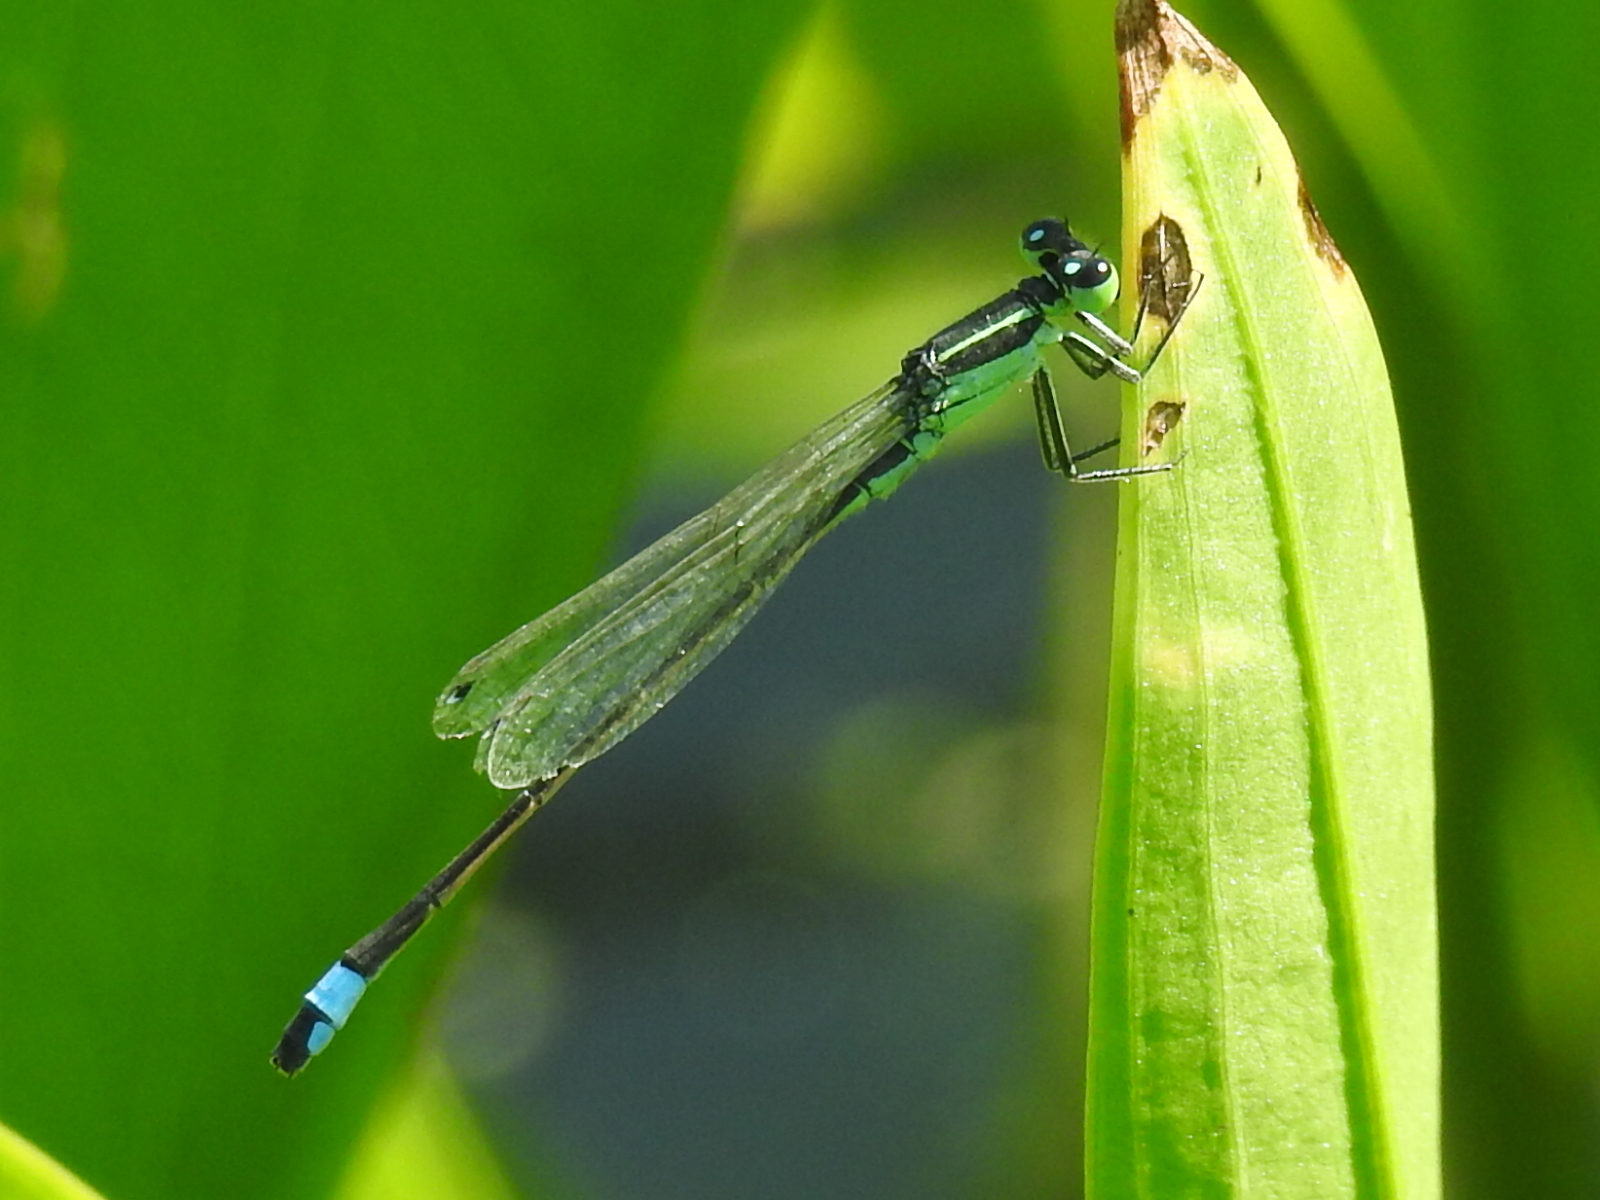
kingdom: Animalia
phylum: Arthropoda
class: Insecta
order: Odonata
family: Coenagrionidae
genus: Ischnura
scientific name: Ischnura ramburii
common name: Rambur's forktail
